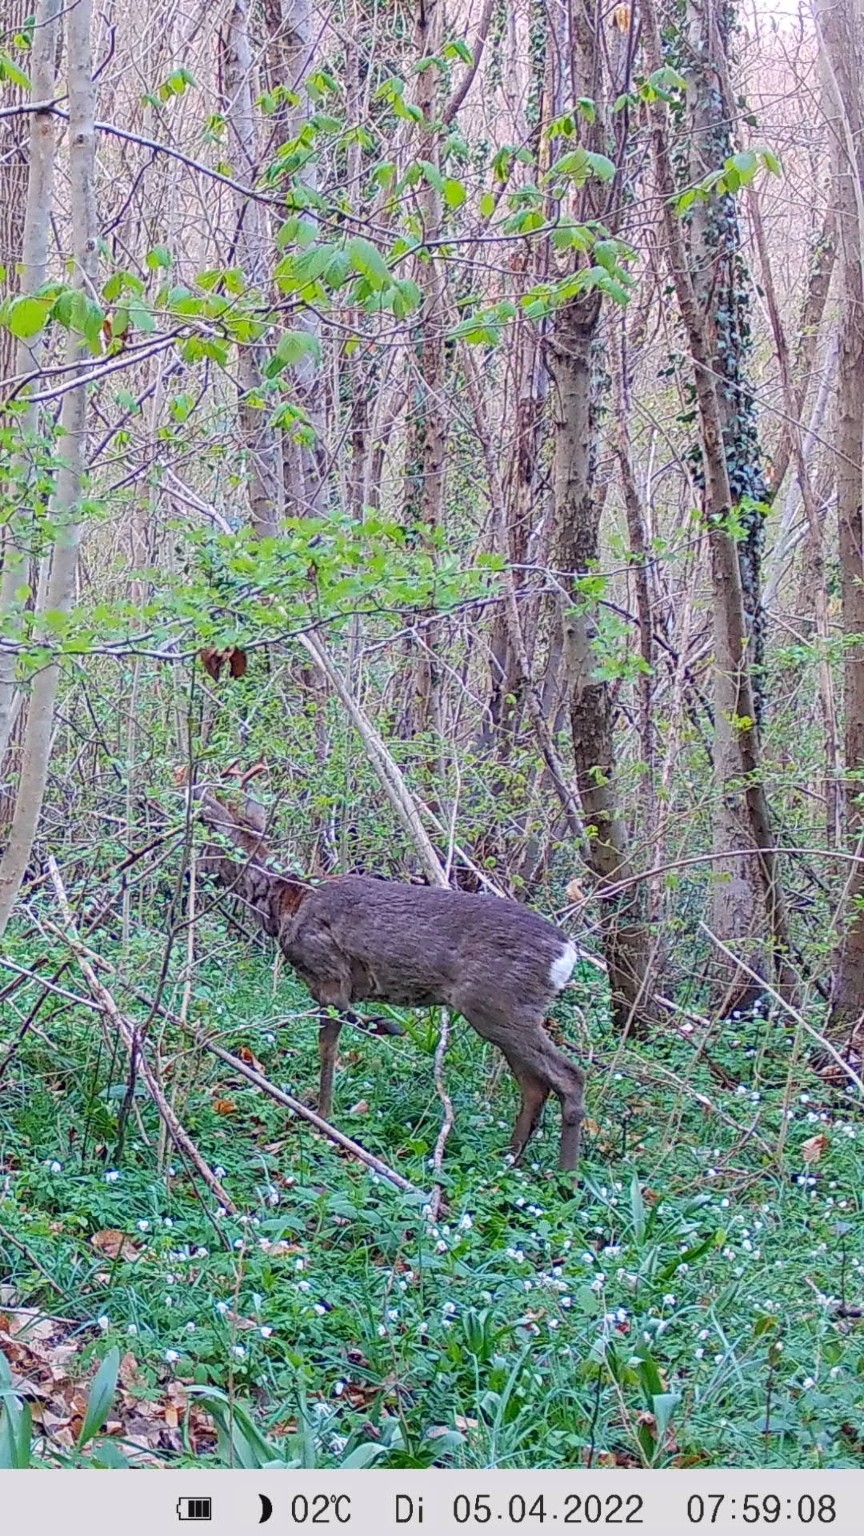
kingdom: Animalia
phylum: Chordata
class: Mammalia
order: Artiodactyla
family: Cervidae
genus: Capreolus
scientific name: Capreolus capreolus
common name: Western roe deer
